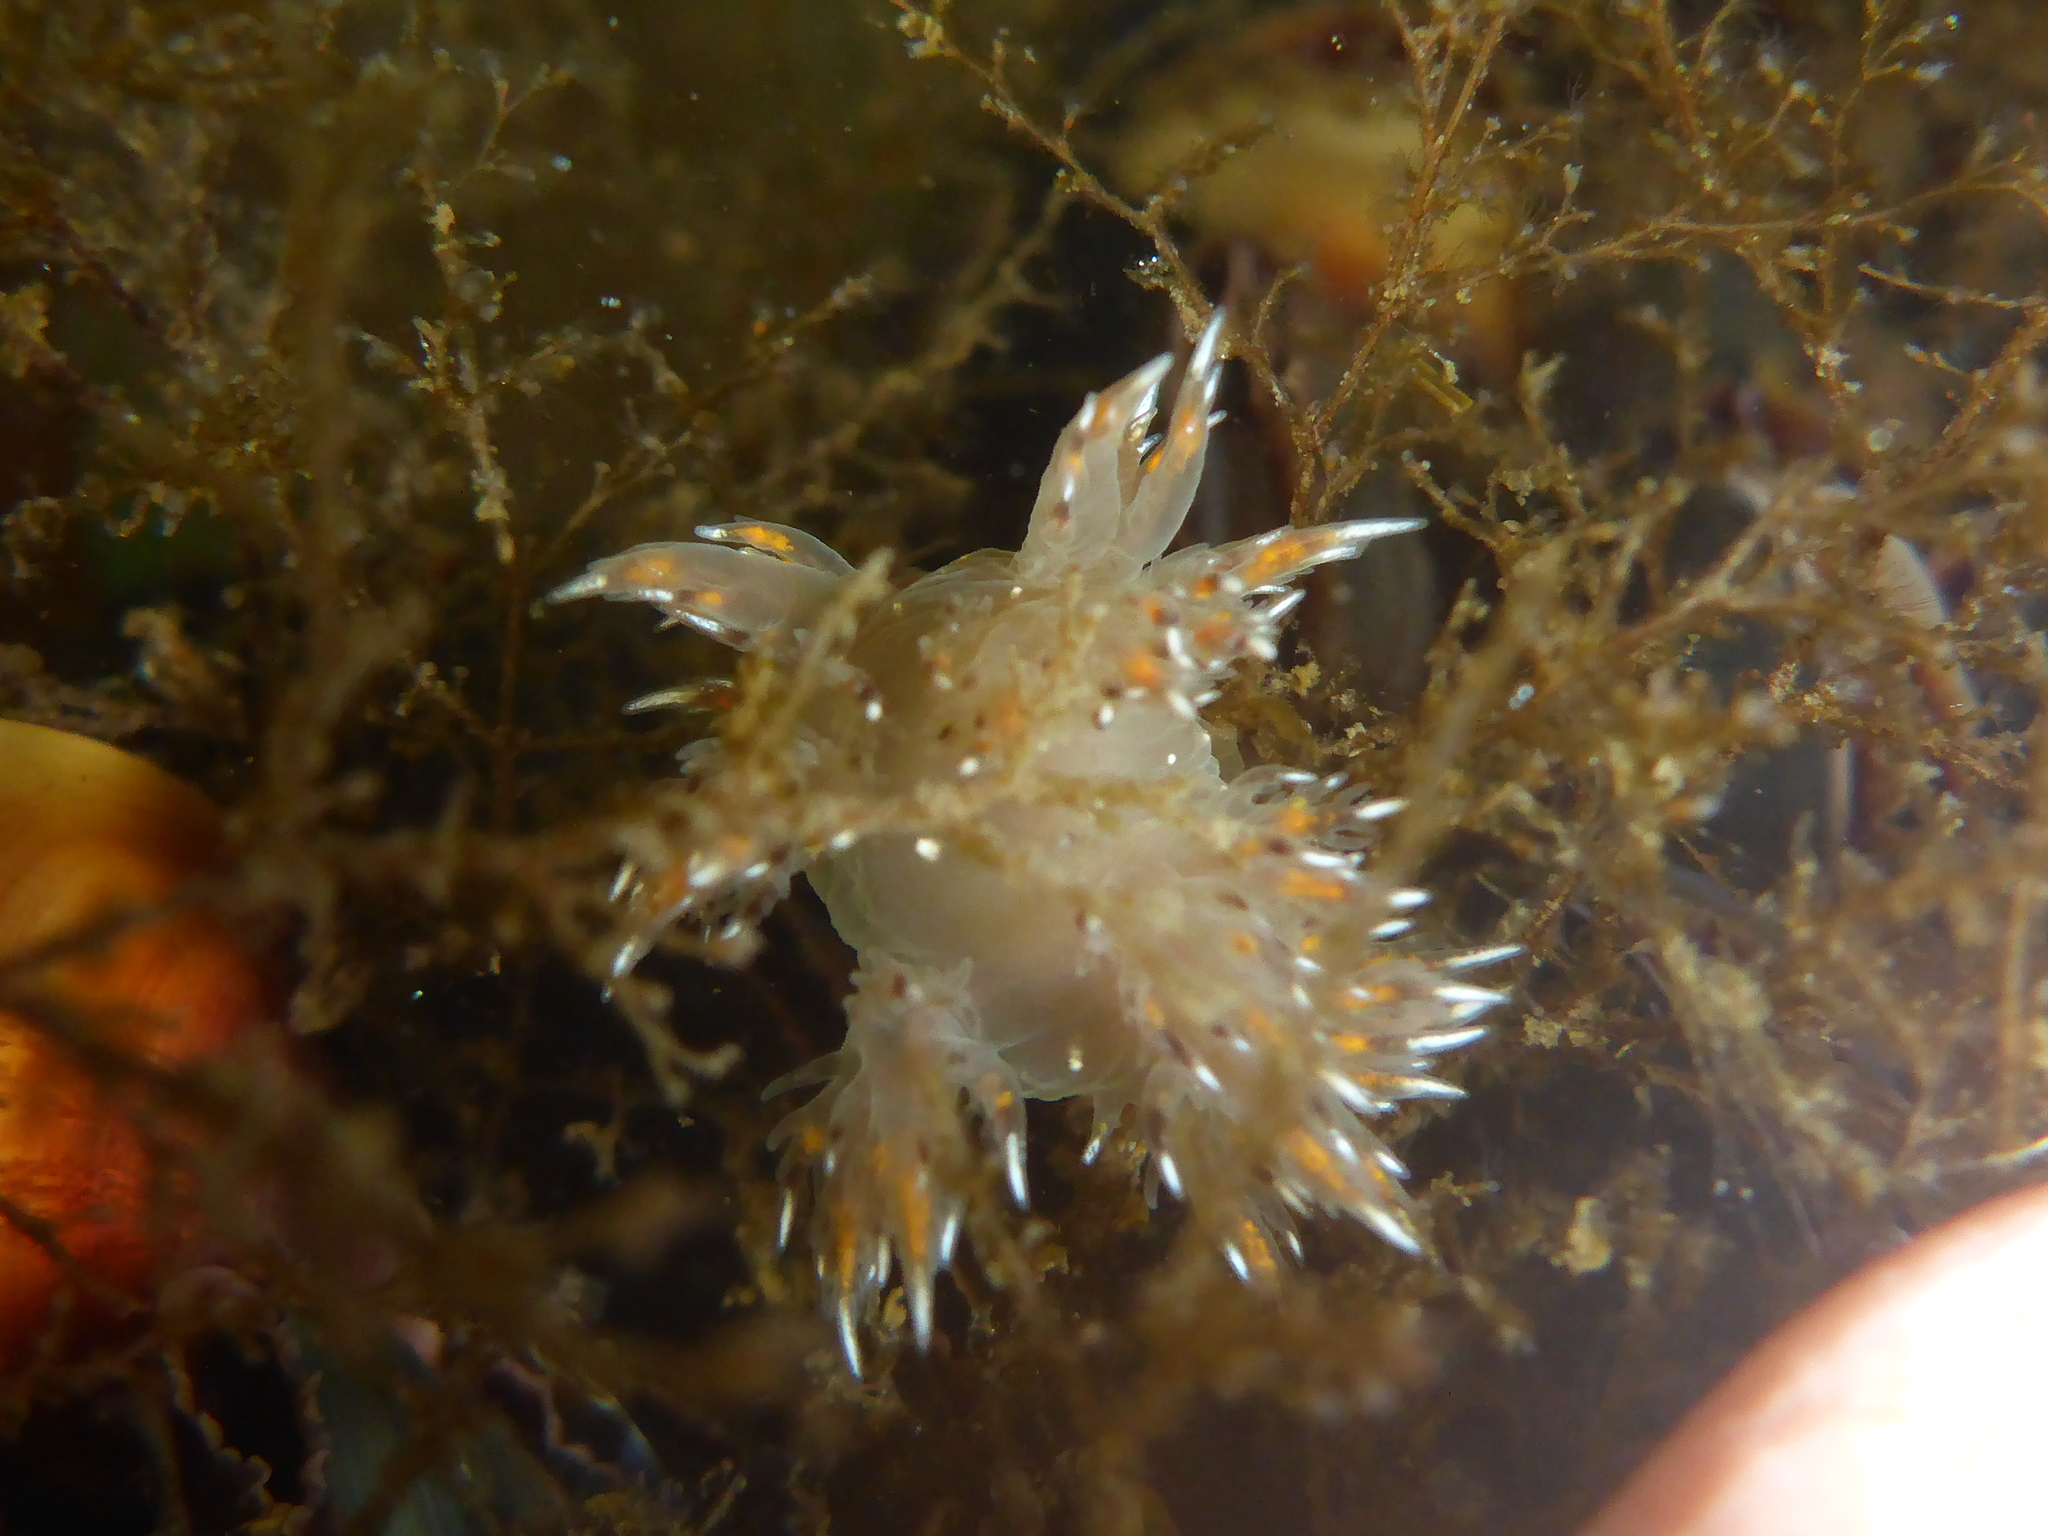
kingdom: Animalia
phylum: Mollusca
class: Gastropoda
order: Nudibranchia
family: Dendronotidae
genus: Dendronotus
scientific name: Dendronotus iris
